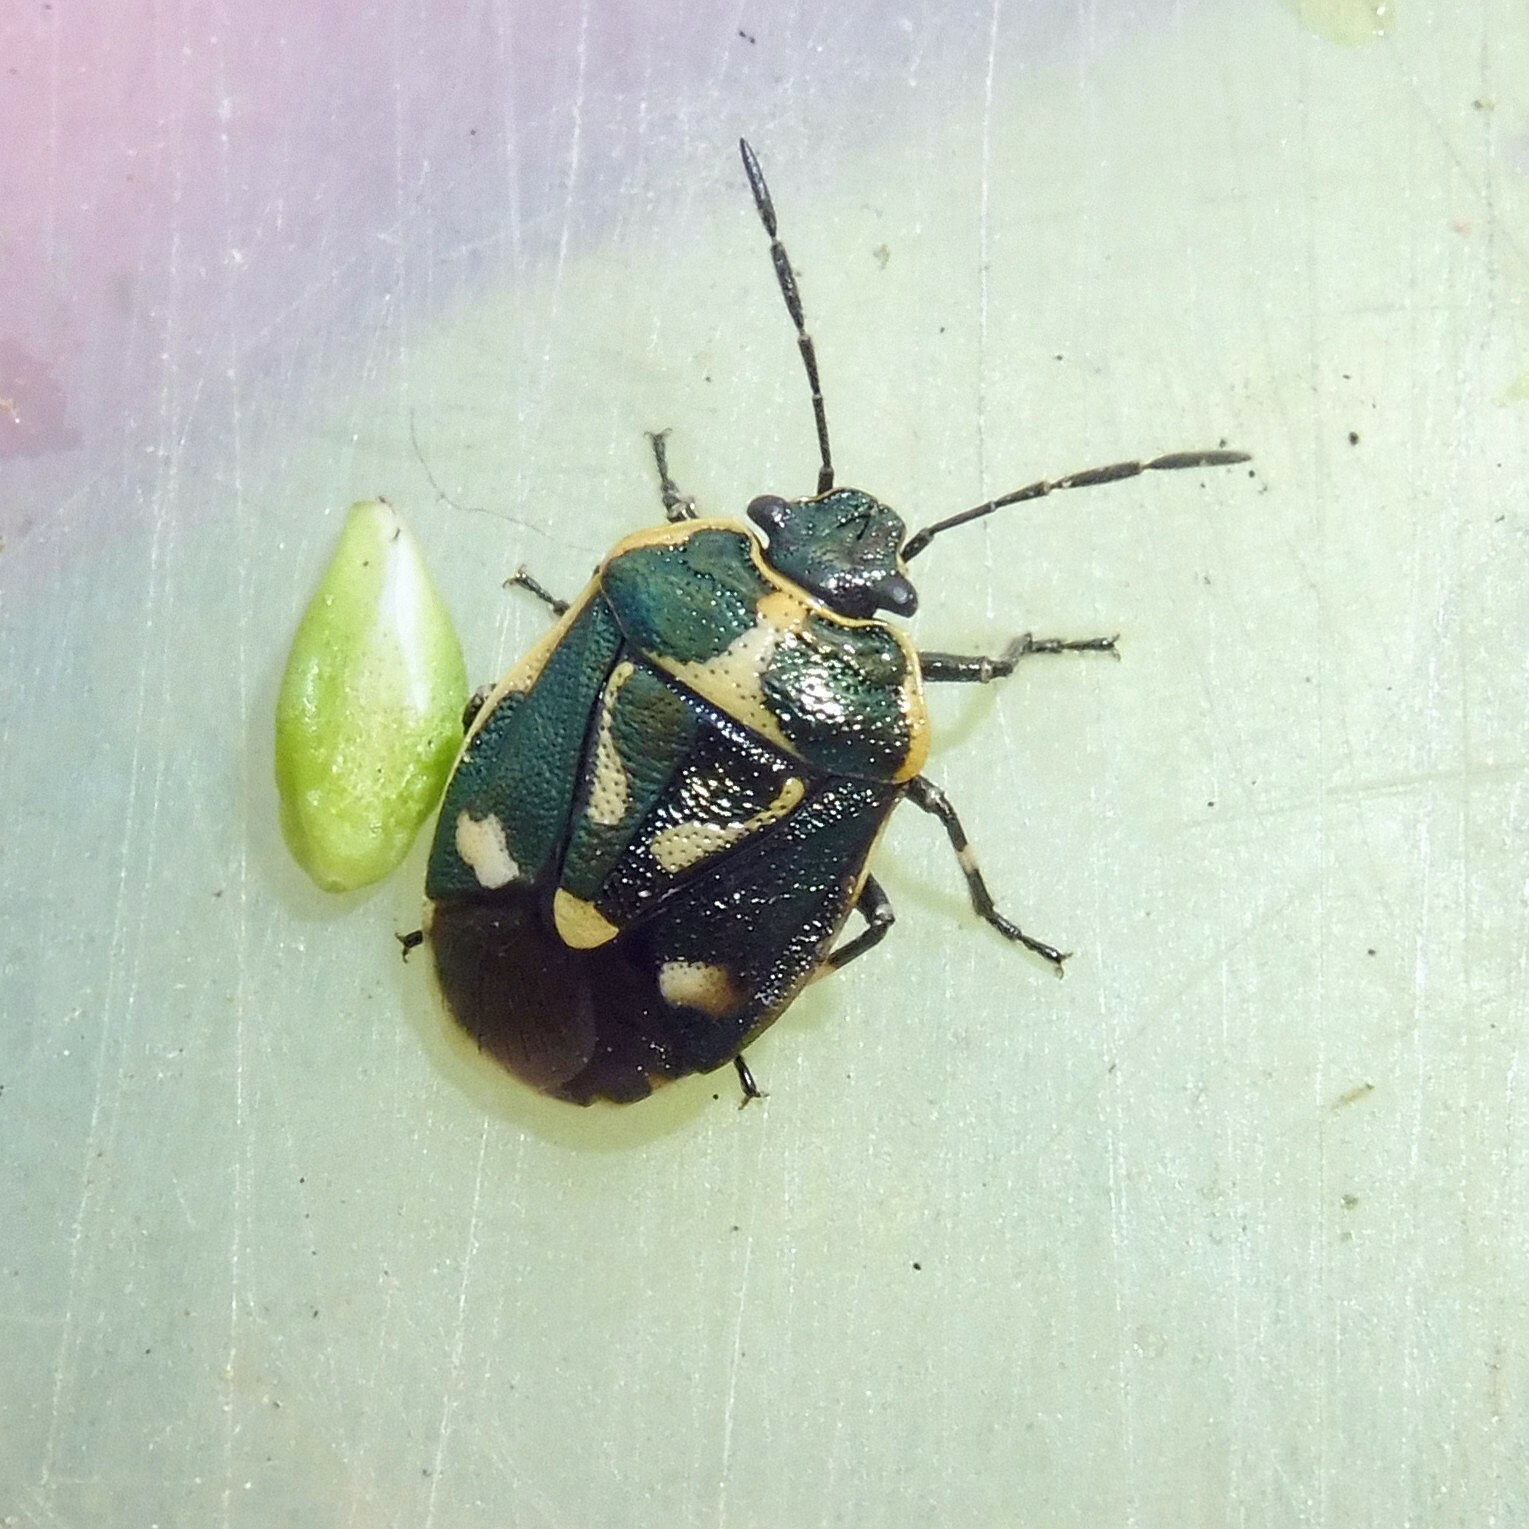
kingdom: Animalia
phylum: Arthropoda
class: Insecta
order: Hemiptera
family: Pentatomidae
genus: Eurydema
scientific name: Eurydema oleracea
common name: Cabbage bug
